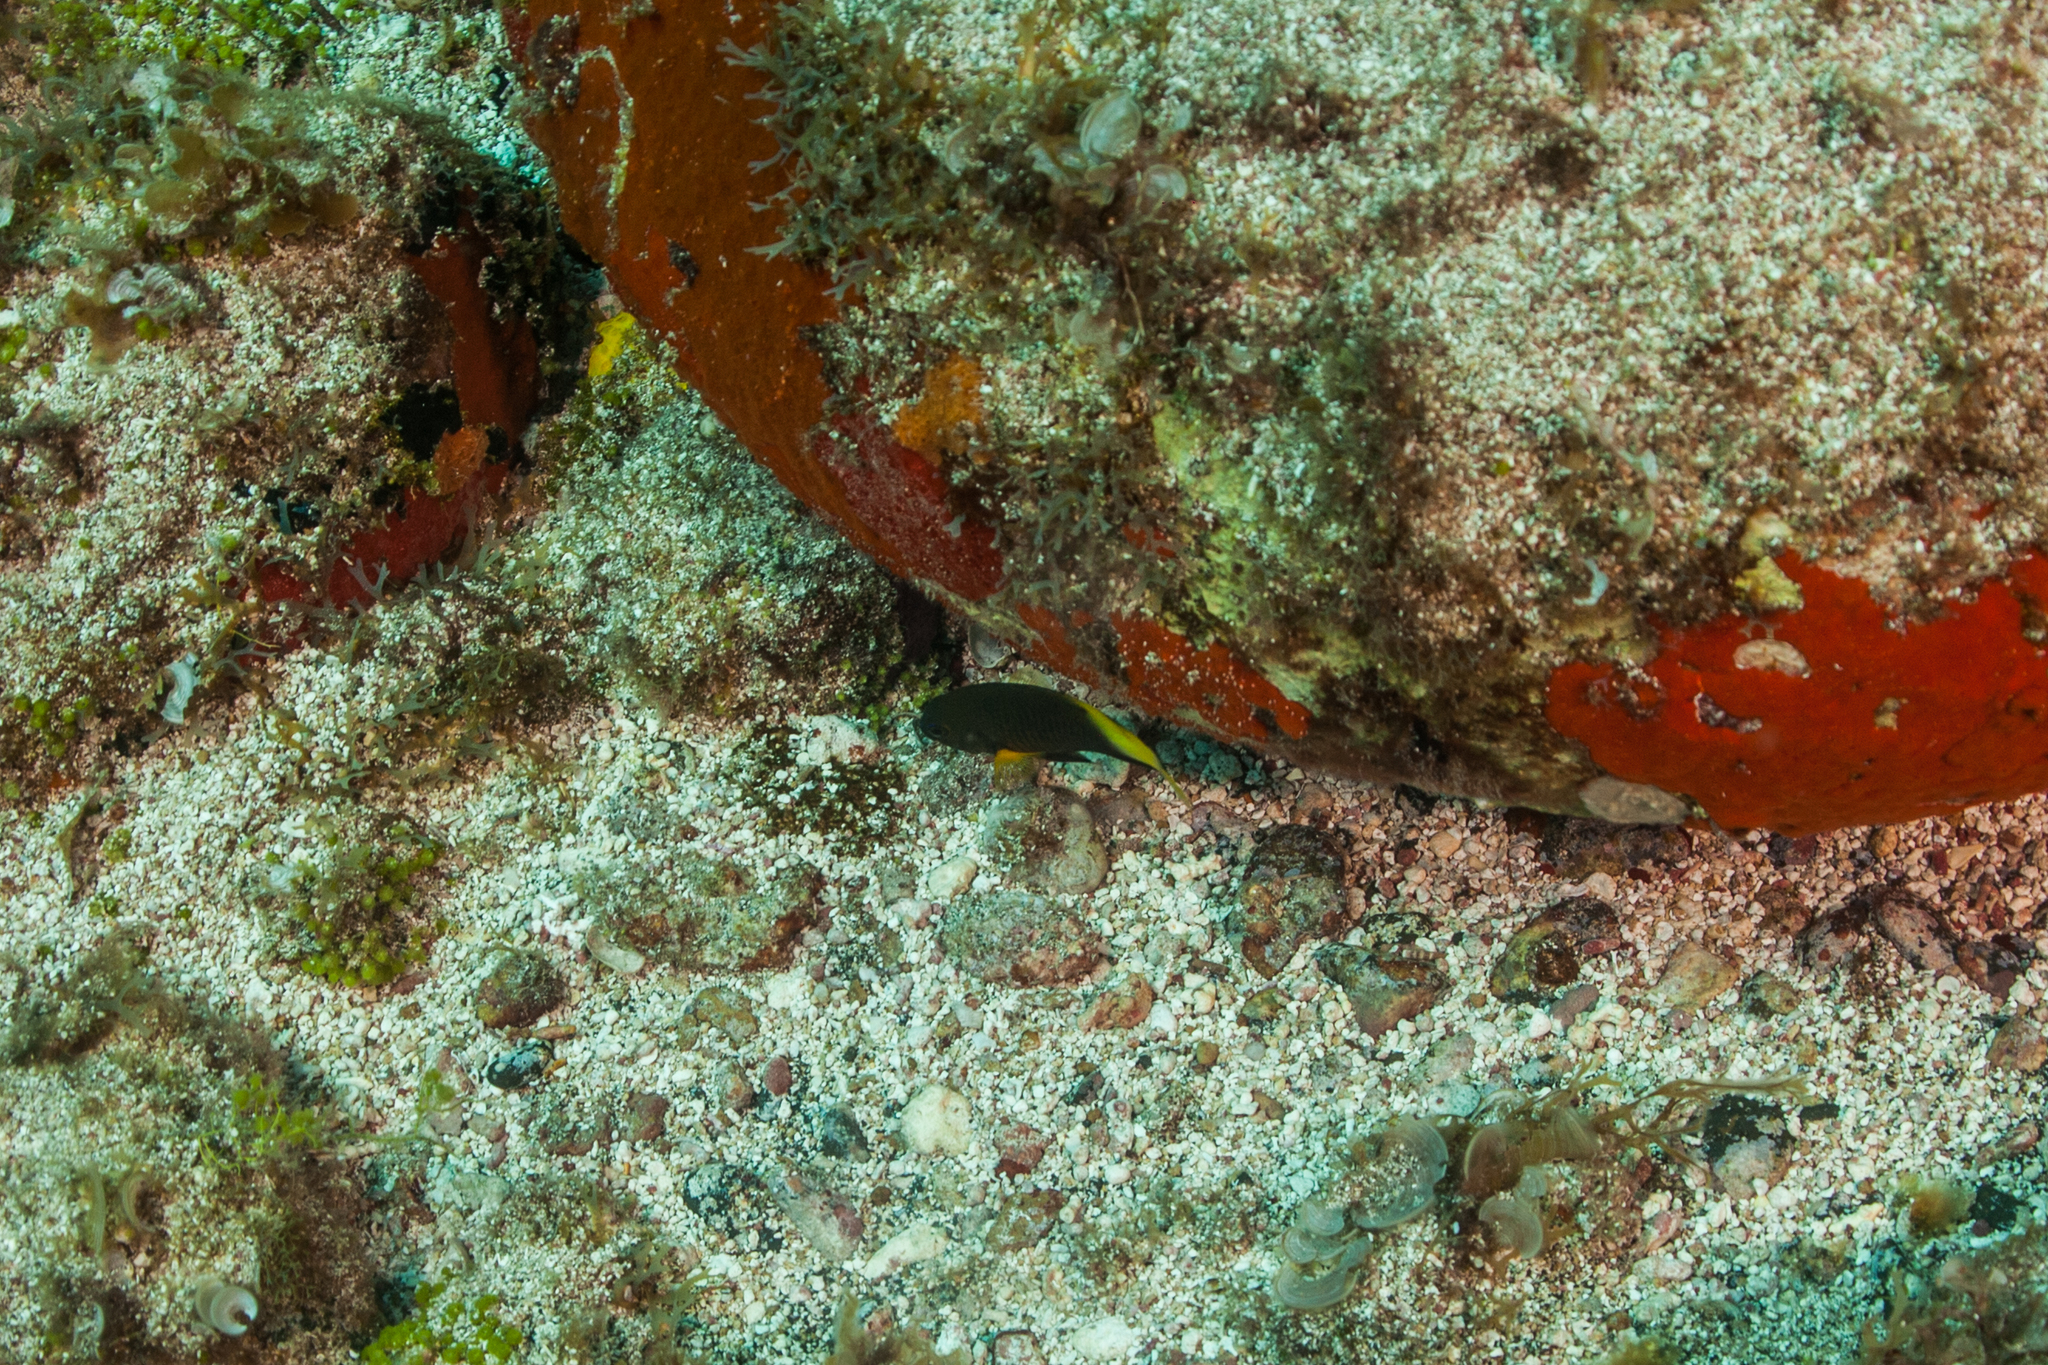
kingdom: Animalia
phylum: Chordata
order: Perciformes
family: Pomacentridae
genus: Stegastes
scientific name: Stegastes pictus
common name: Yellowtip damselfish
